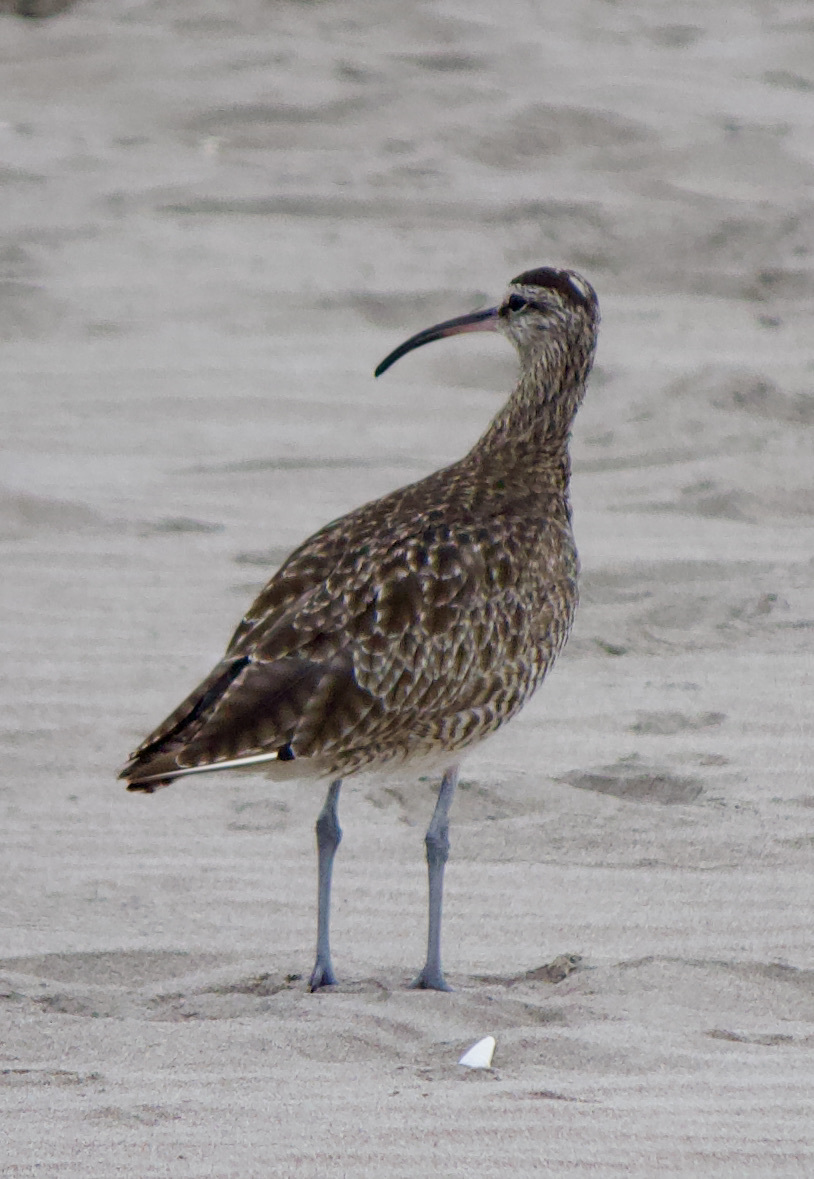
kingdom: Animalia
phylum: Chordata
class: Aves
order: Charadriiformes
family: Scolopacidae
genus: Numenius
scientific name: Numenius phaeopus
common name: Whimbrel
